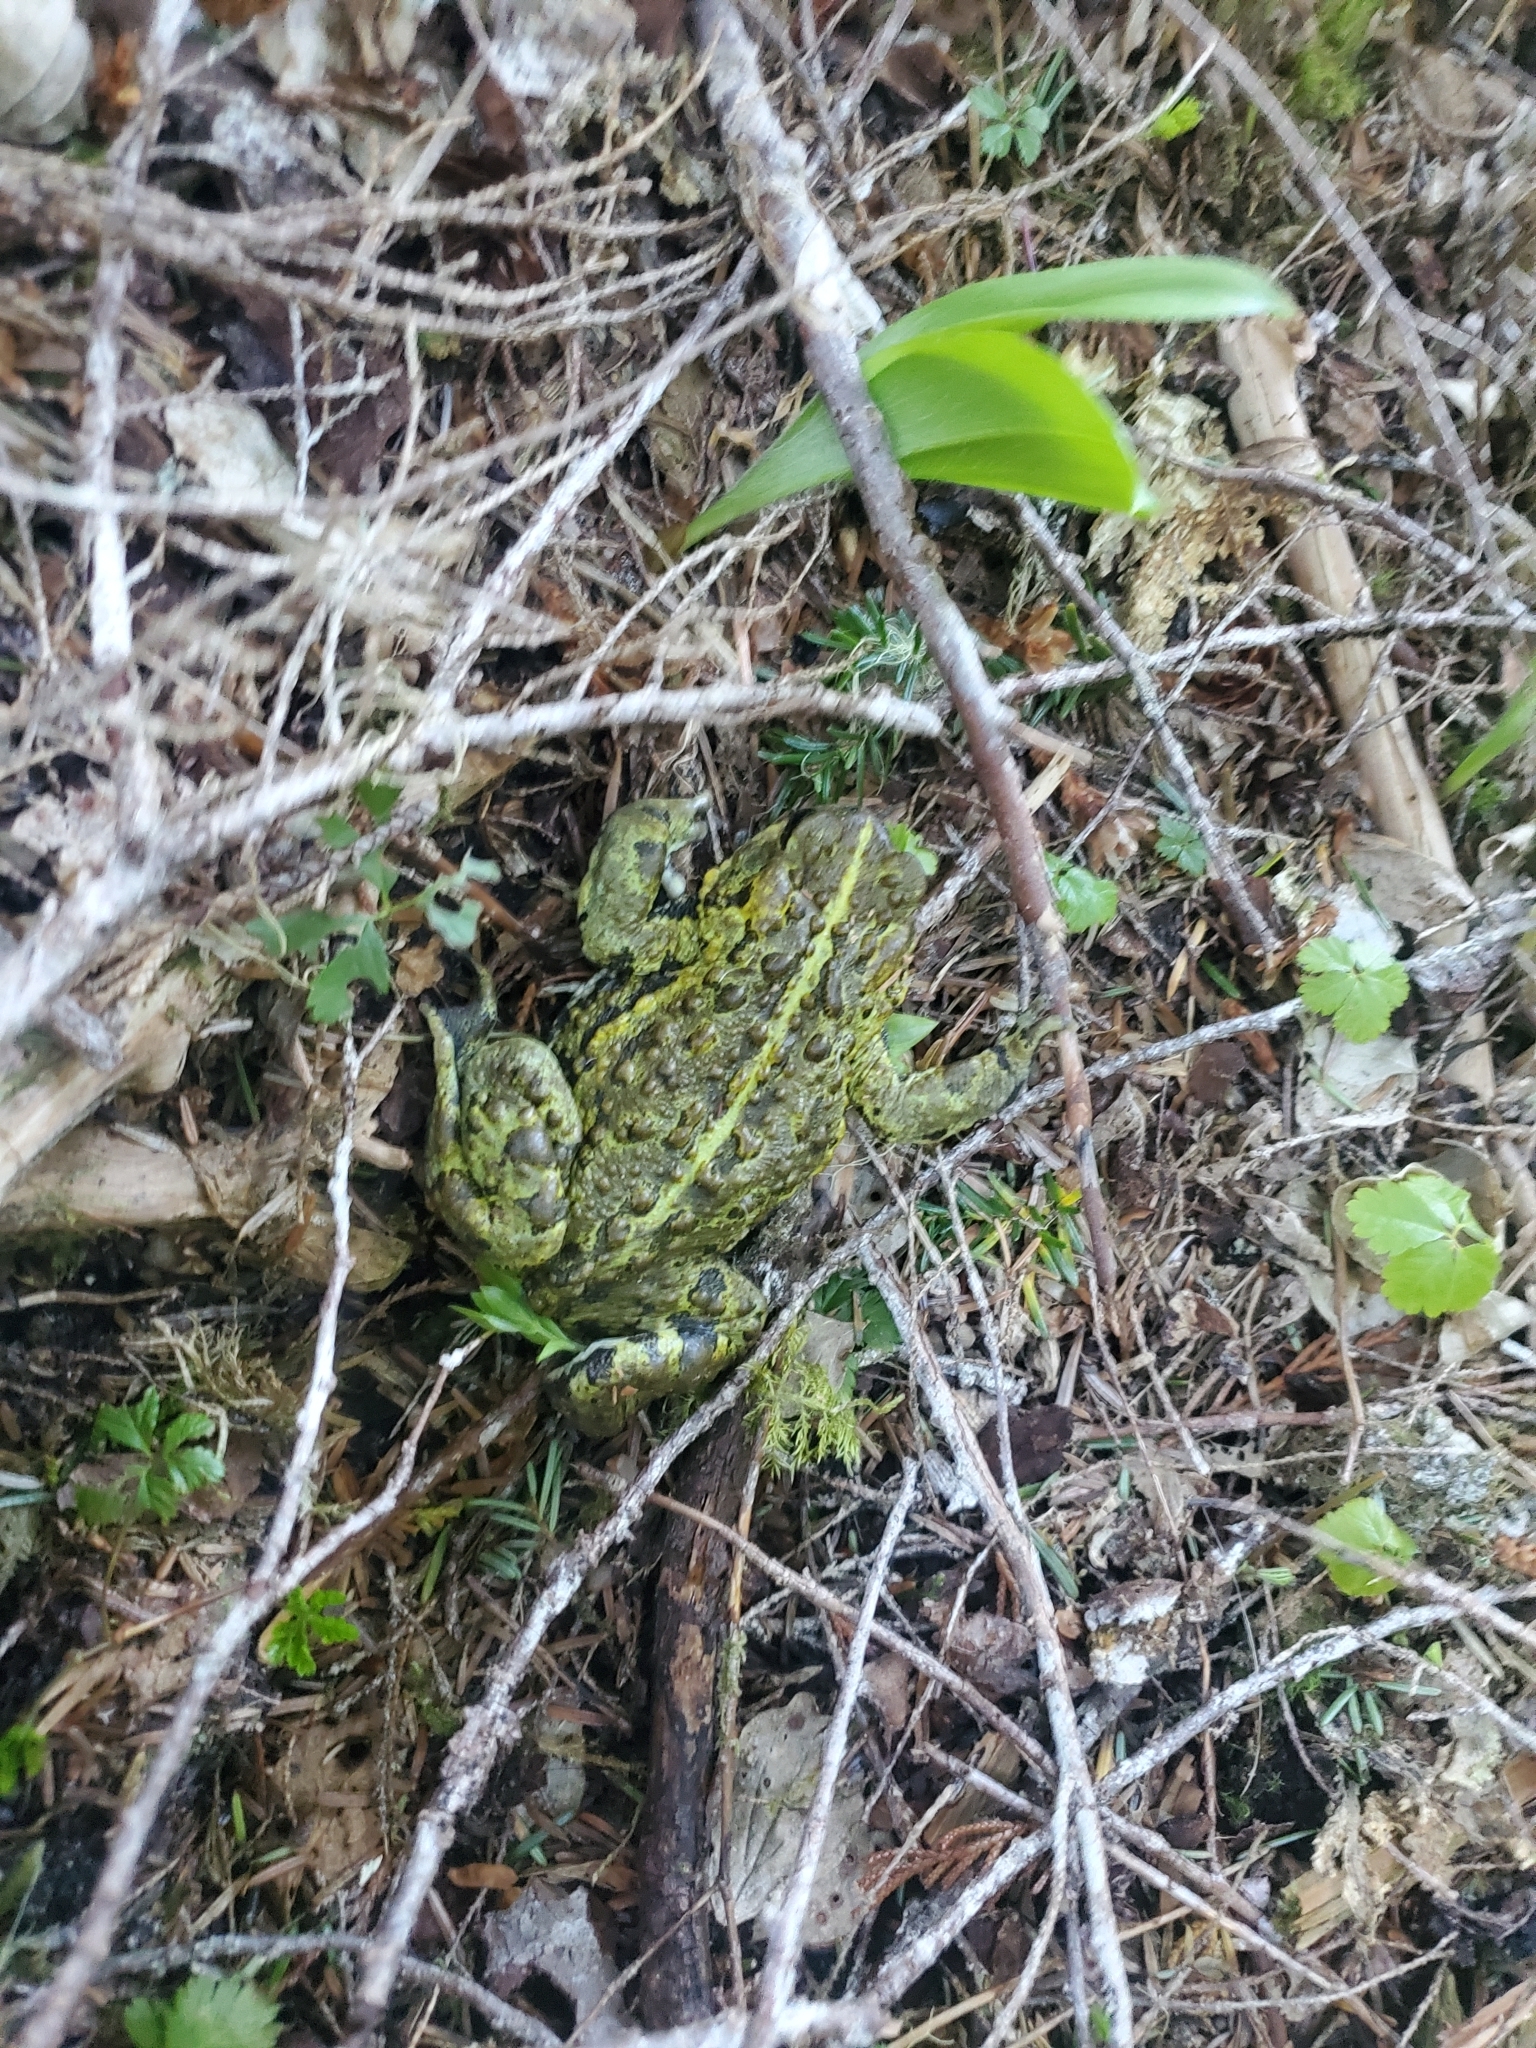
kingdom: Animalia
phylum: Chordata
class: Amphibia
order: Anura
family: Bufonidae
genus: Anaxyrus
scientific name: Anaxyrus boreas
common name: Western toad
